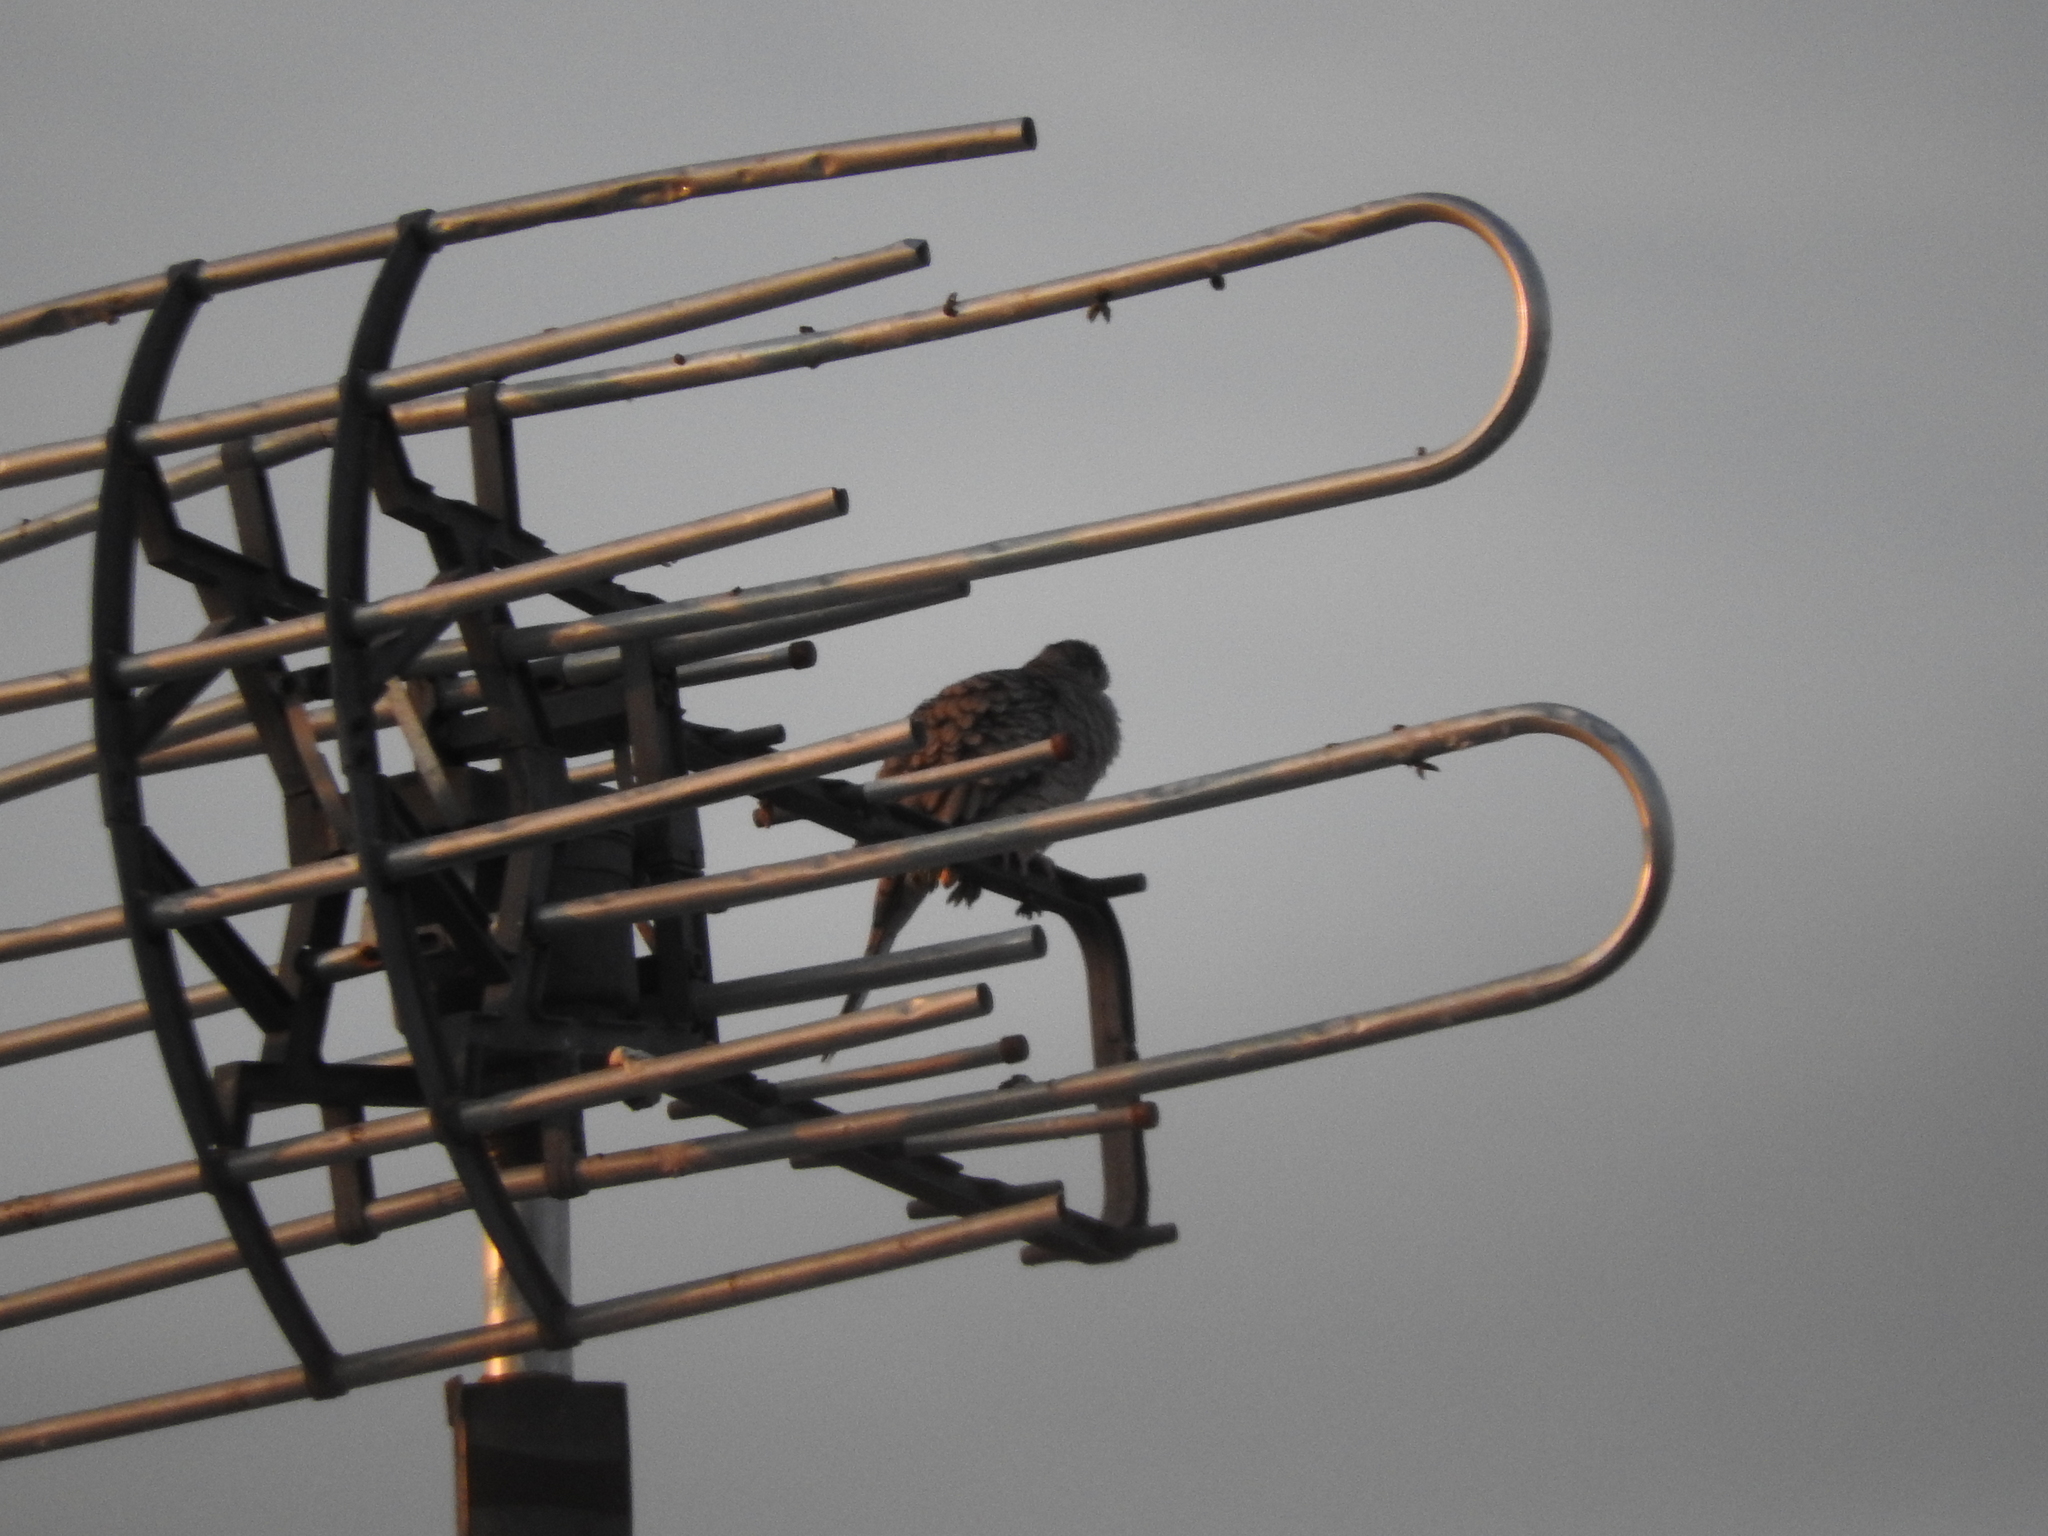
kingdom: Animalia
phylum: Chordata
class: Aves
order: Columbiformes
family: Columbidae
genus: Columbina
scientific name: Columbina inca
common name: Inca dove
